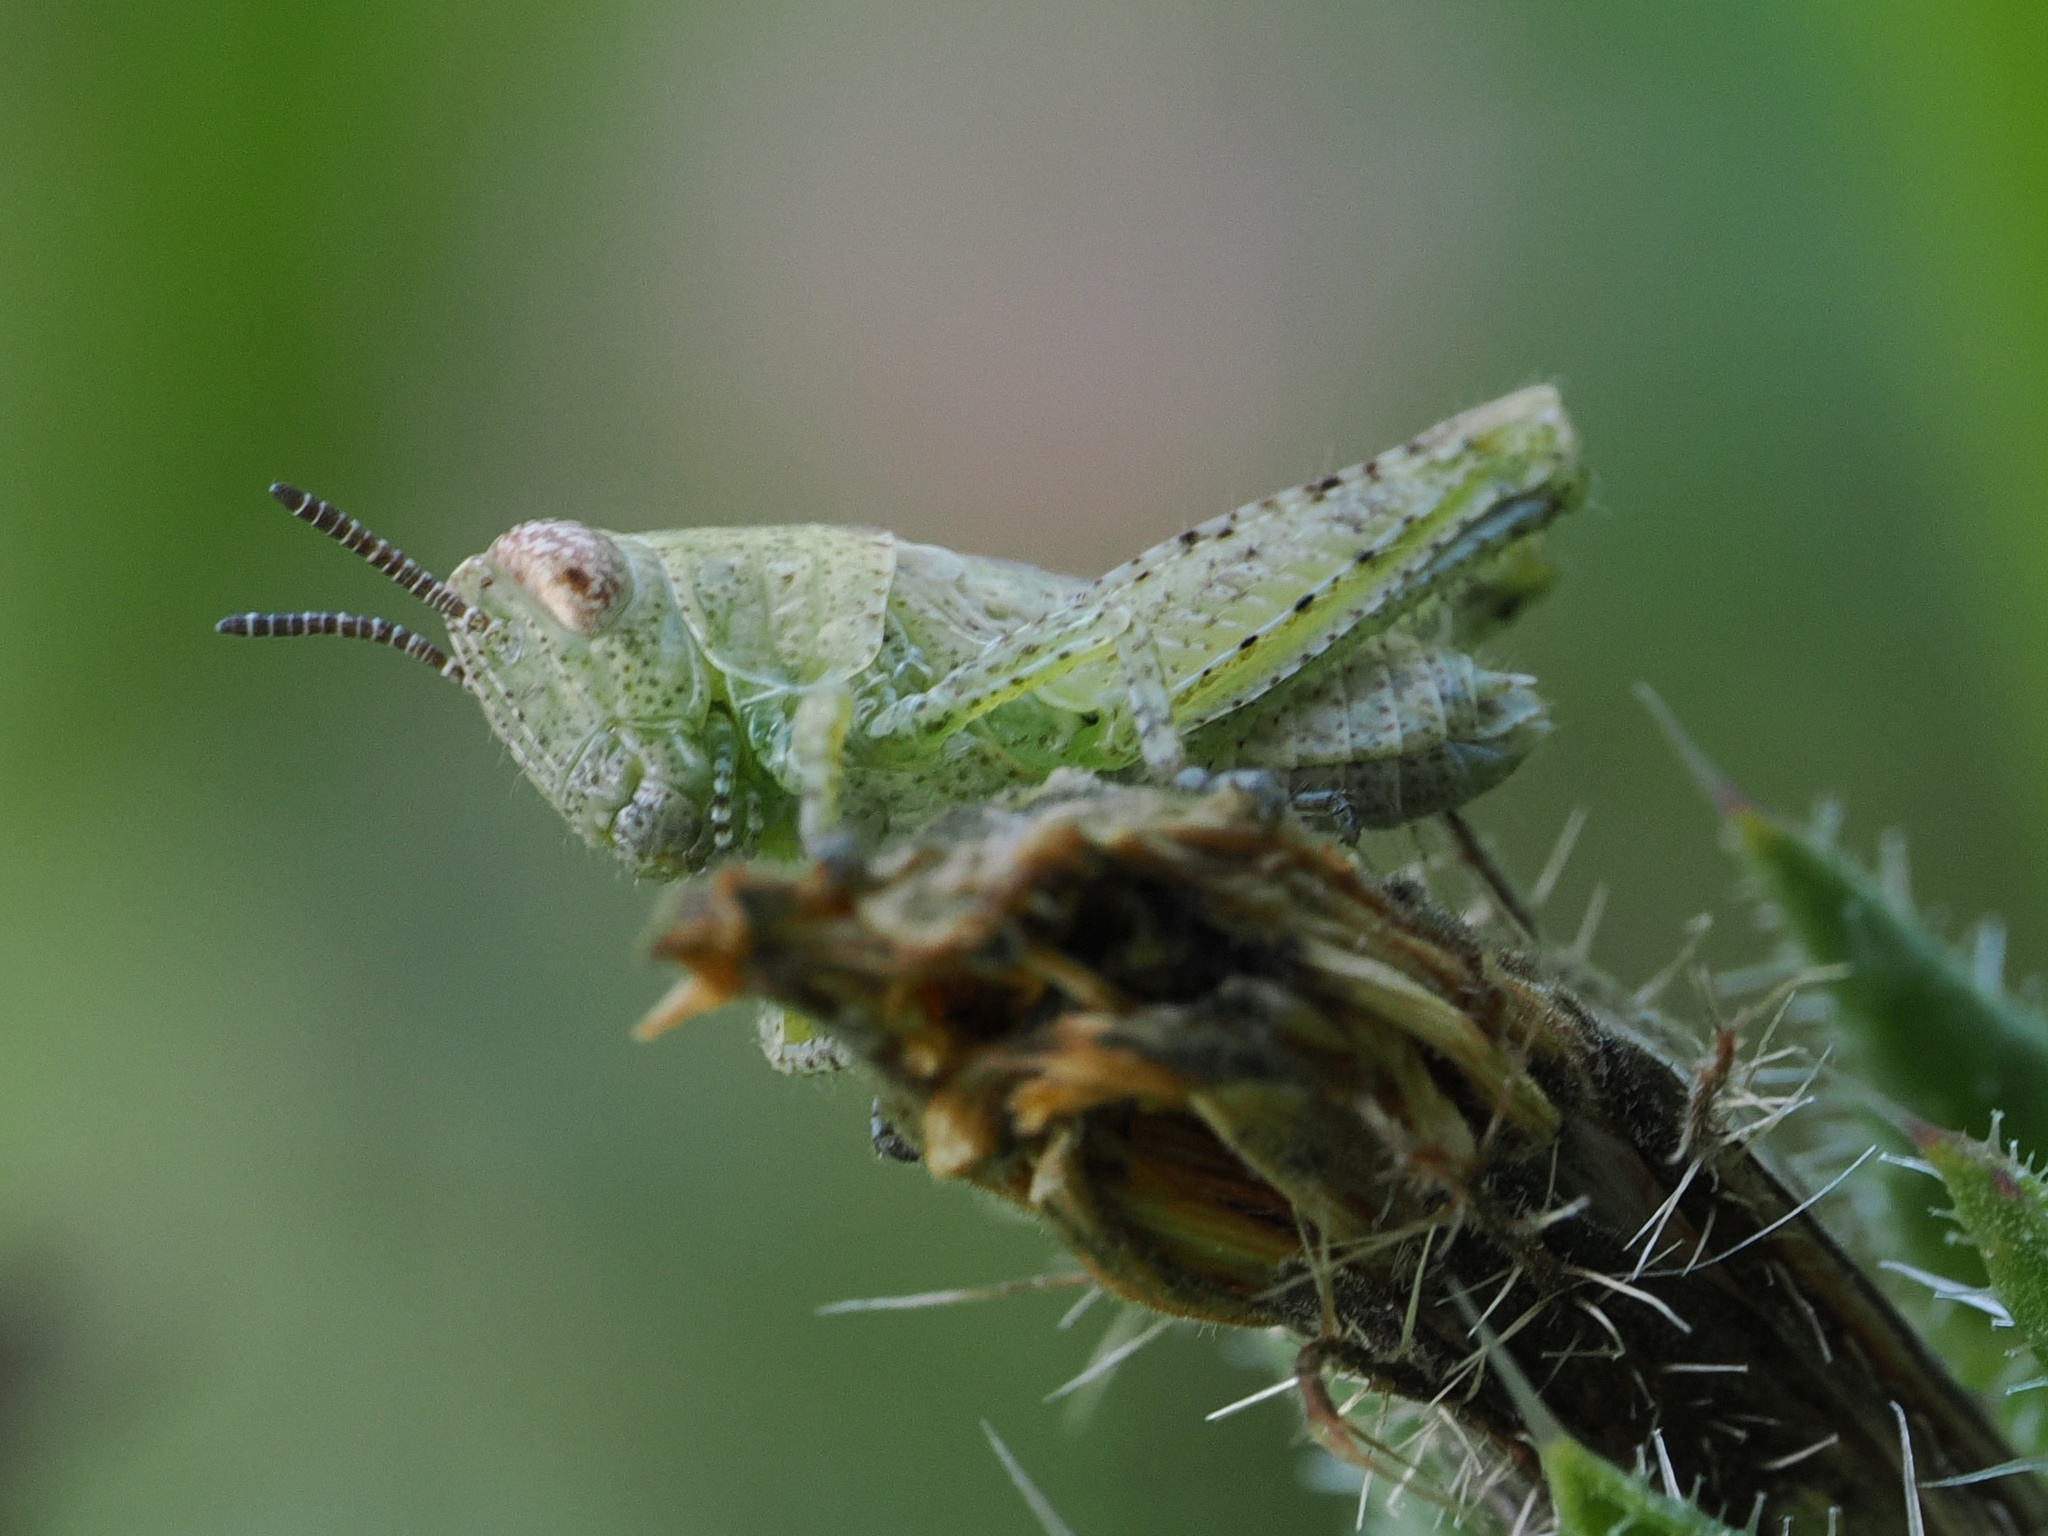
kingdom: Animalia
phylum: Arthropoda
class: Insecta
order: Orthoptera
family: Acrididae
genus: Pezotettix
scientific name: Pezotettix giornae
